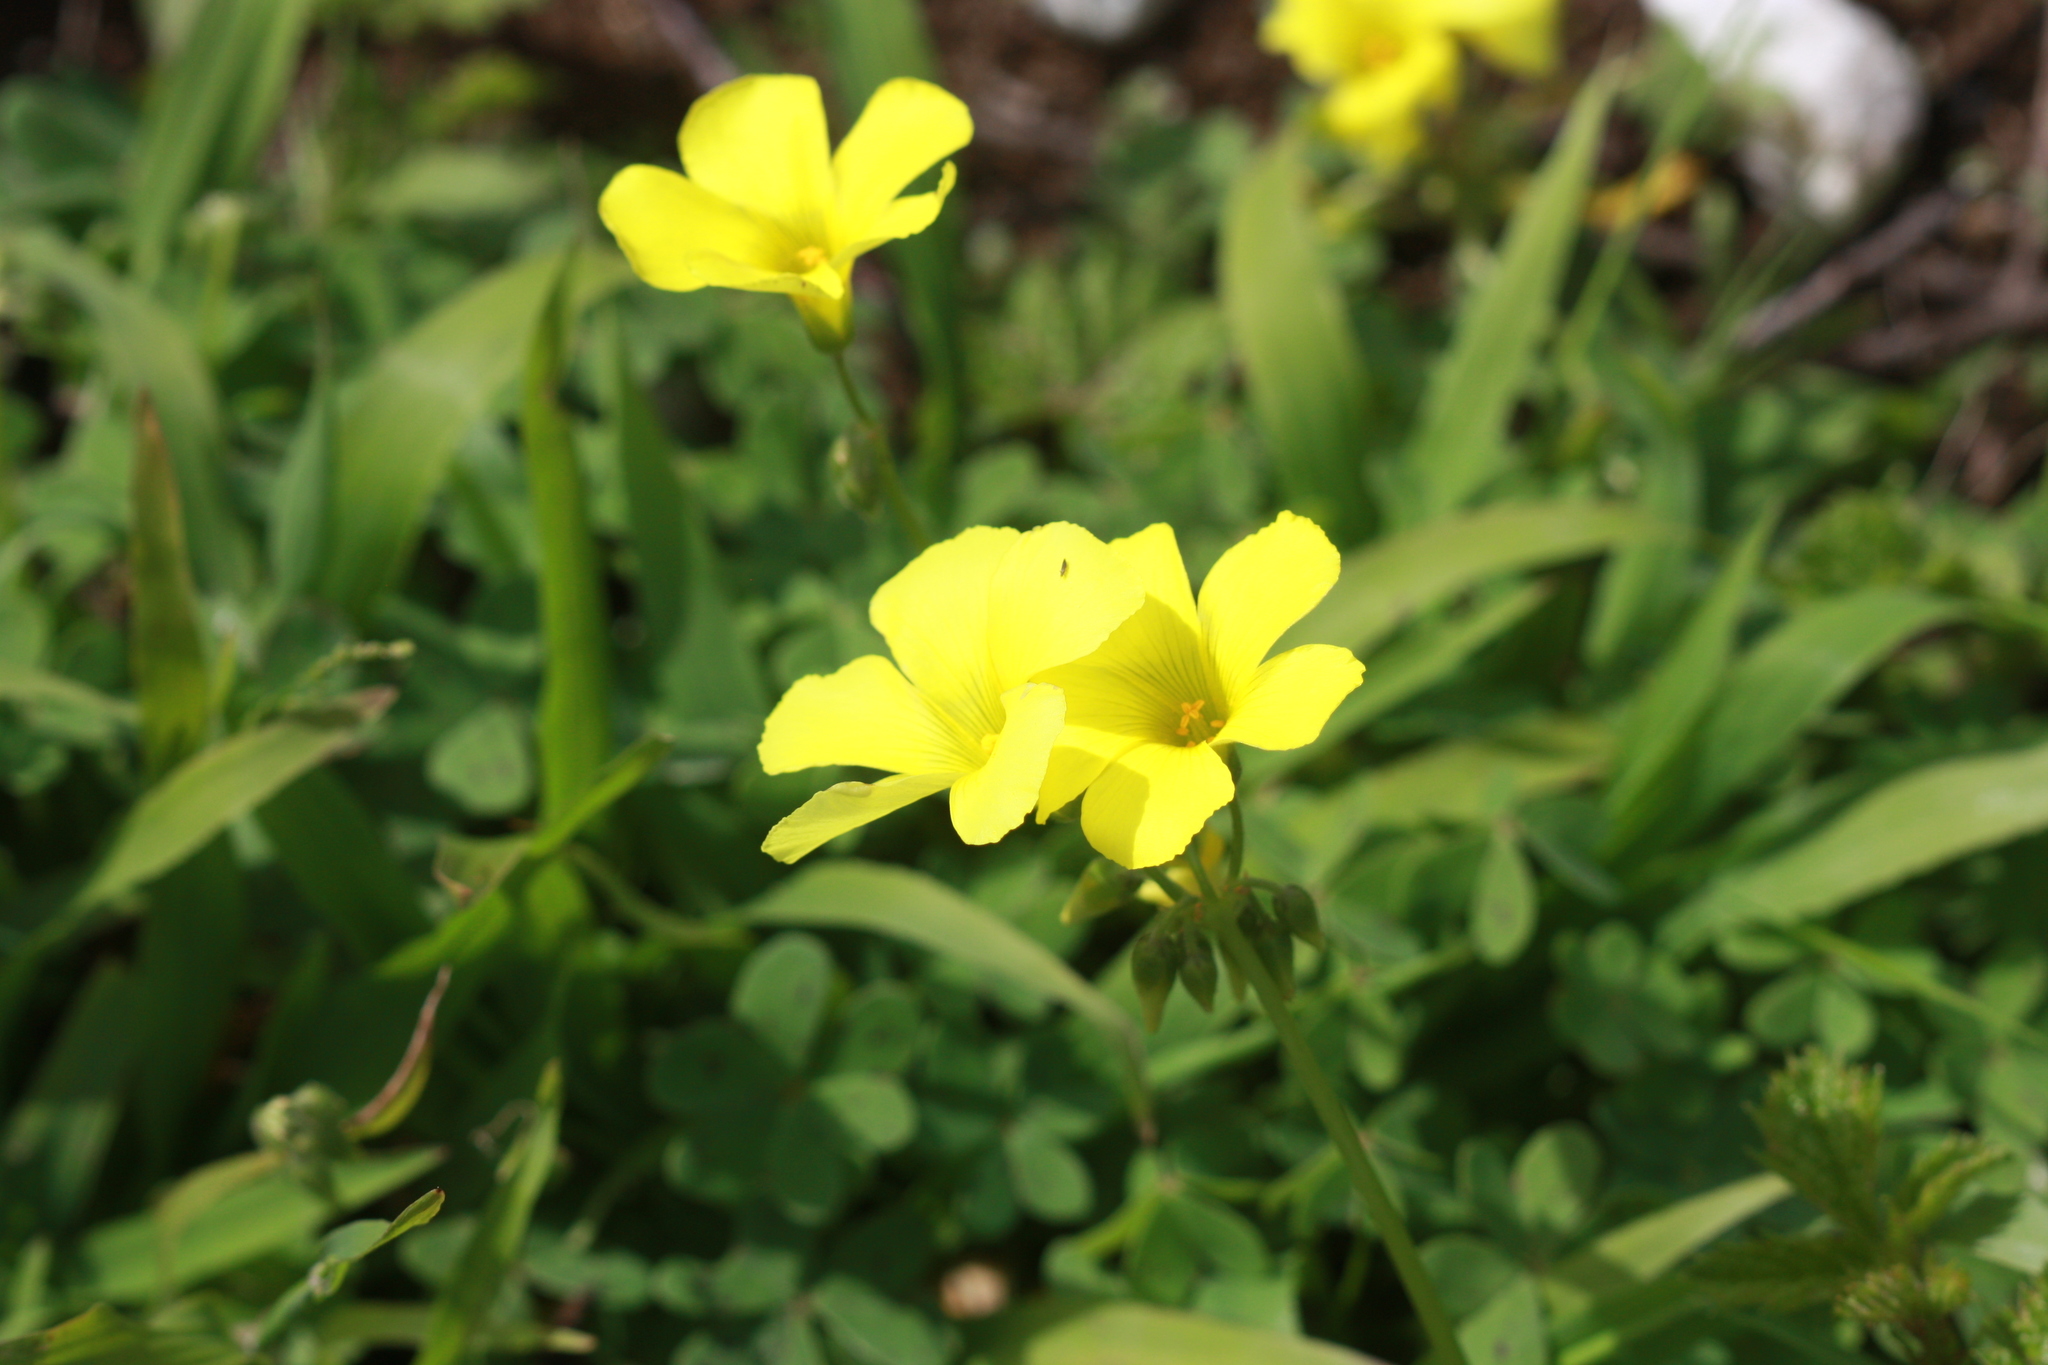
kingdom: Plantae
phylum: Tracheophyta
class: Magnoliopsida
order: Oxalidales
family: Oxalidaceae
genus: Oxalis
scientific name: Oxalis pes-caprae
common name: Bermuda-buttercup
